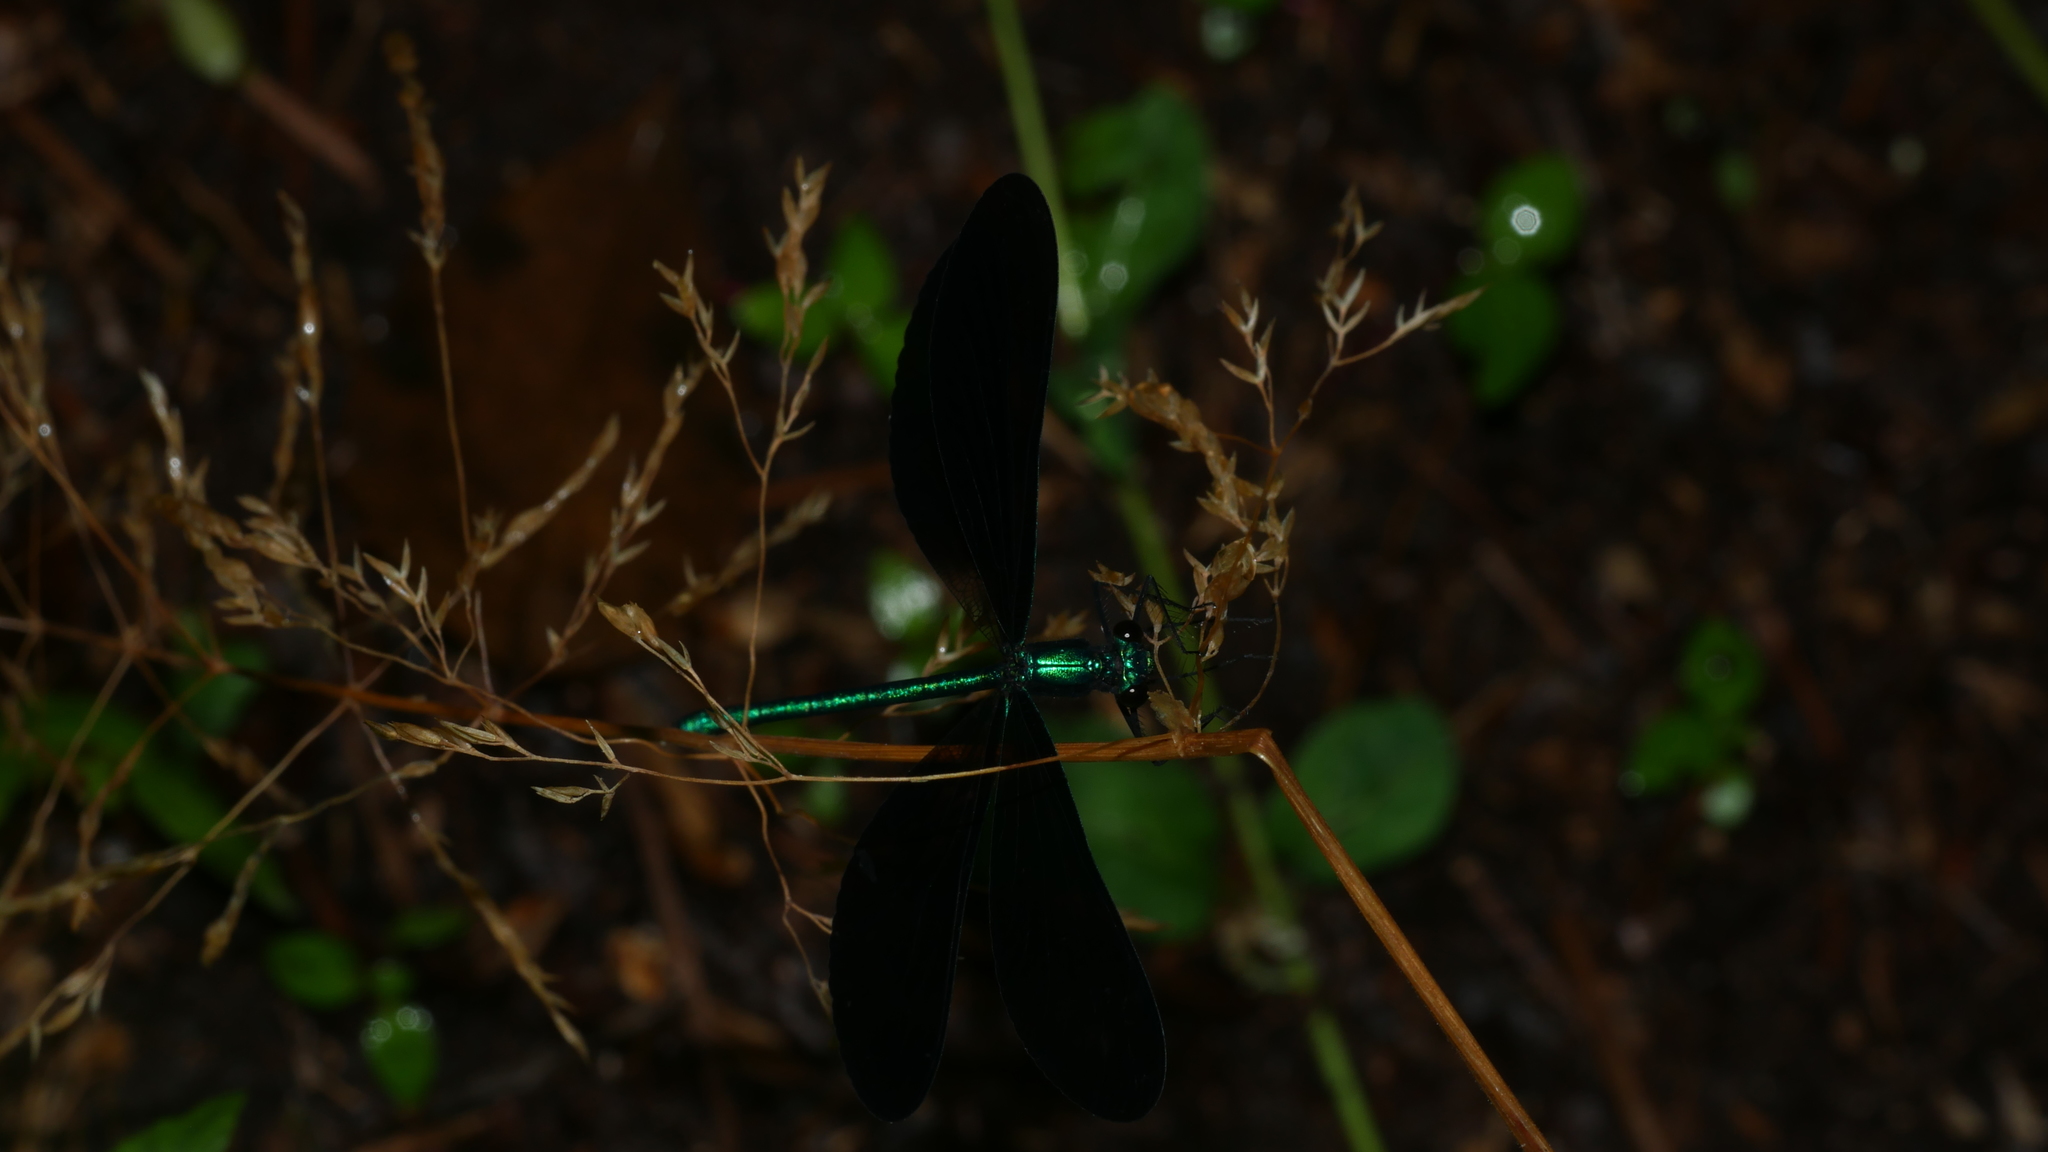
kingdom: Animalia
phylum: Arthropoda
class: Insecta
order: Odonata
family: Calopterygidae
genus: Calopteryx
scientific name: Calopteryx maculata
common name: Ebony jewelwing
